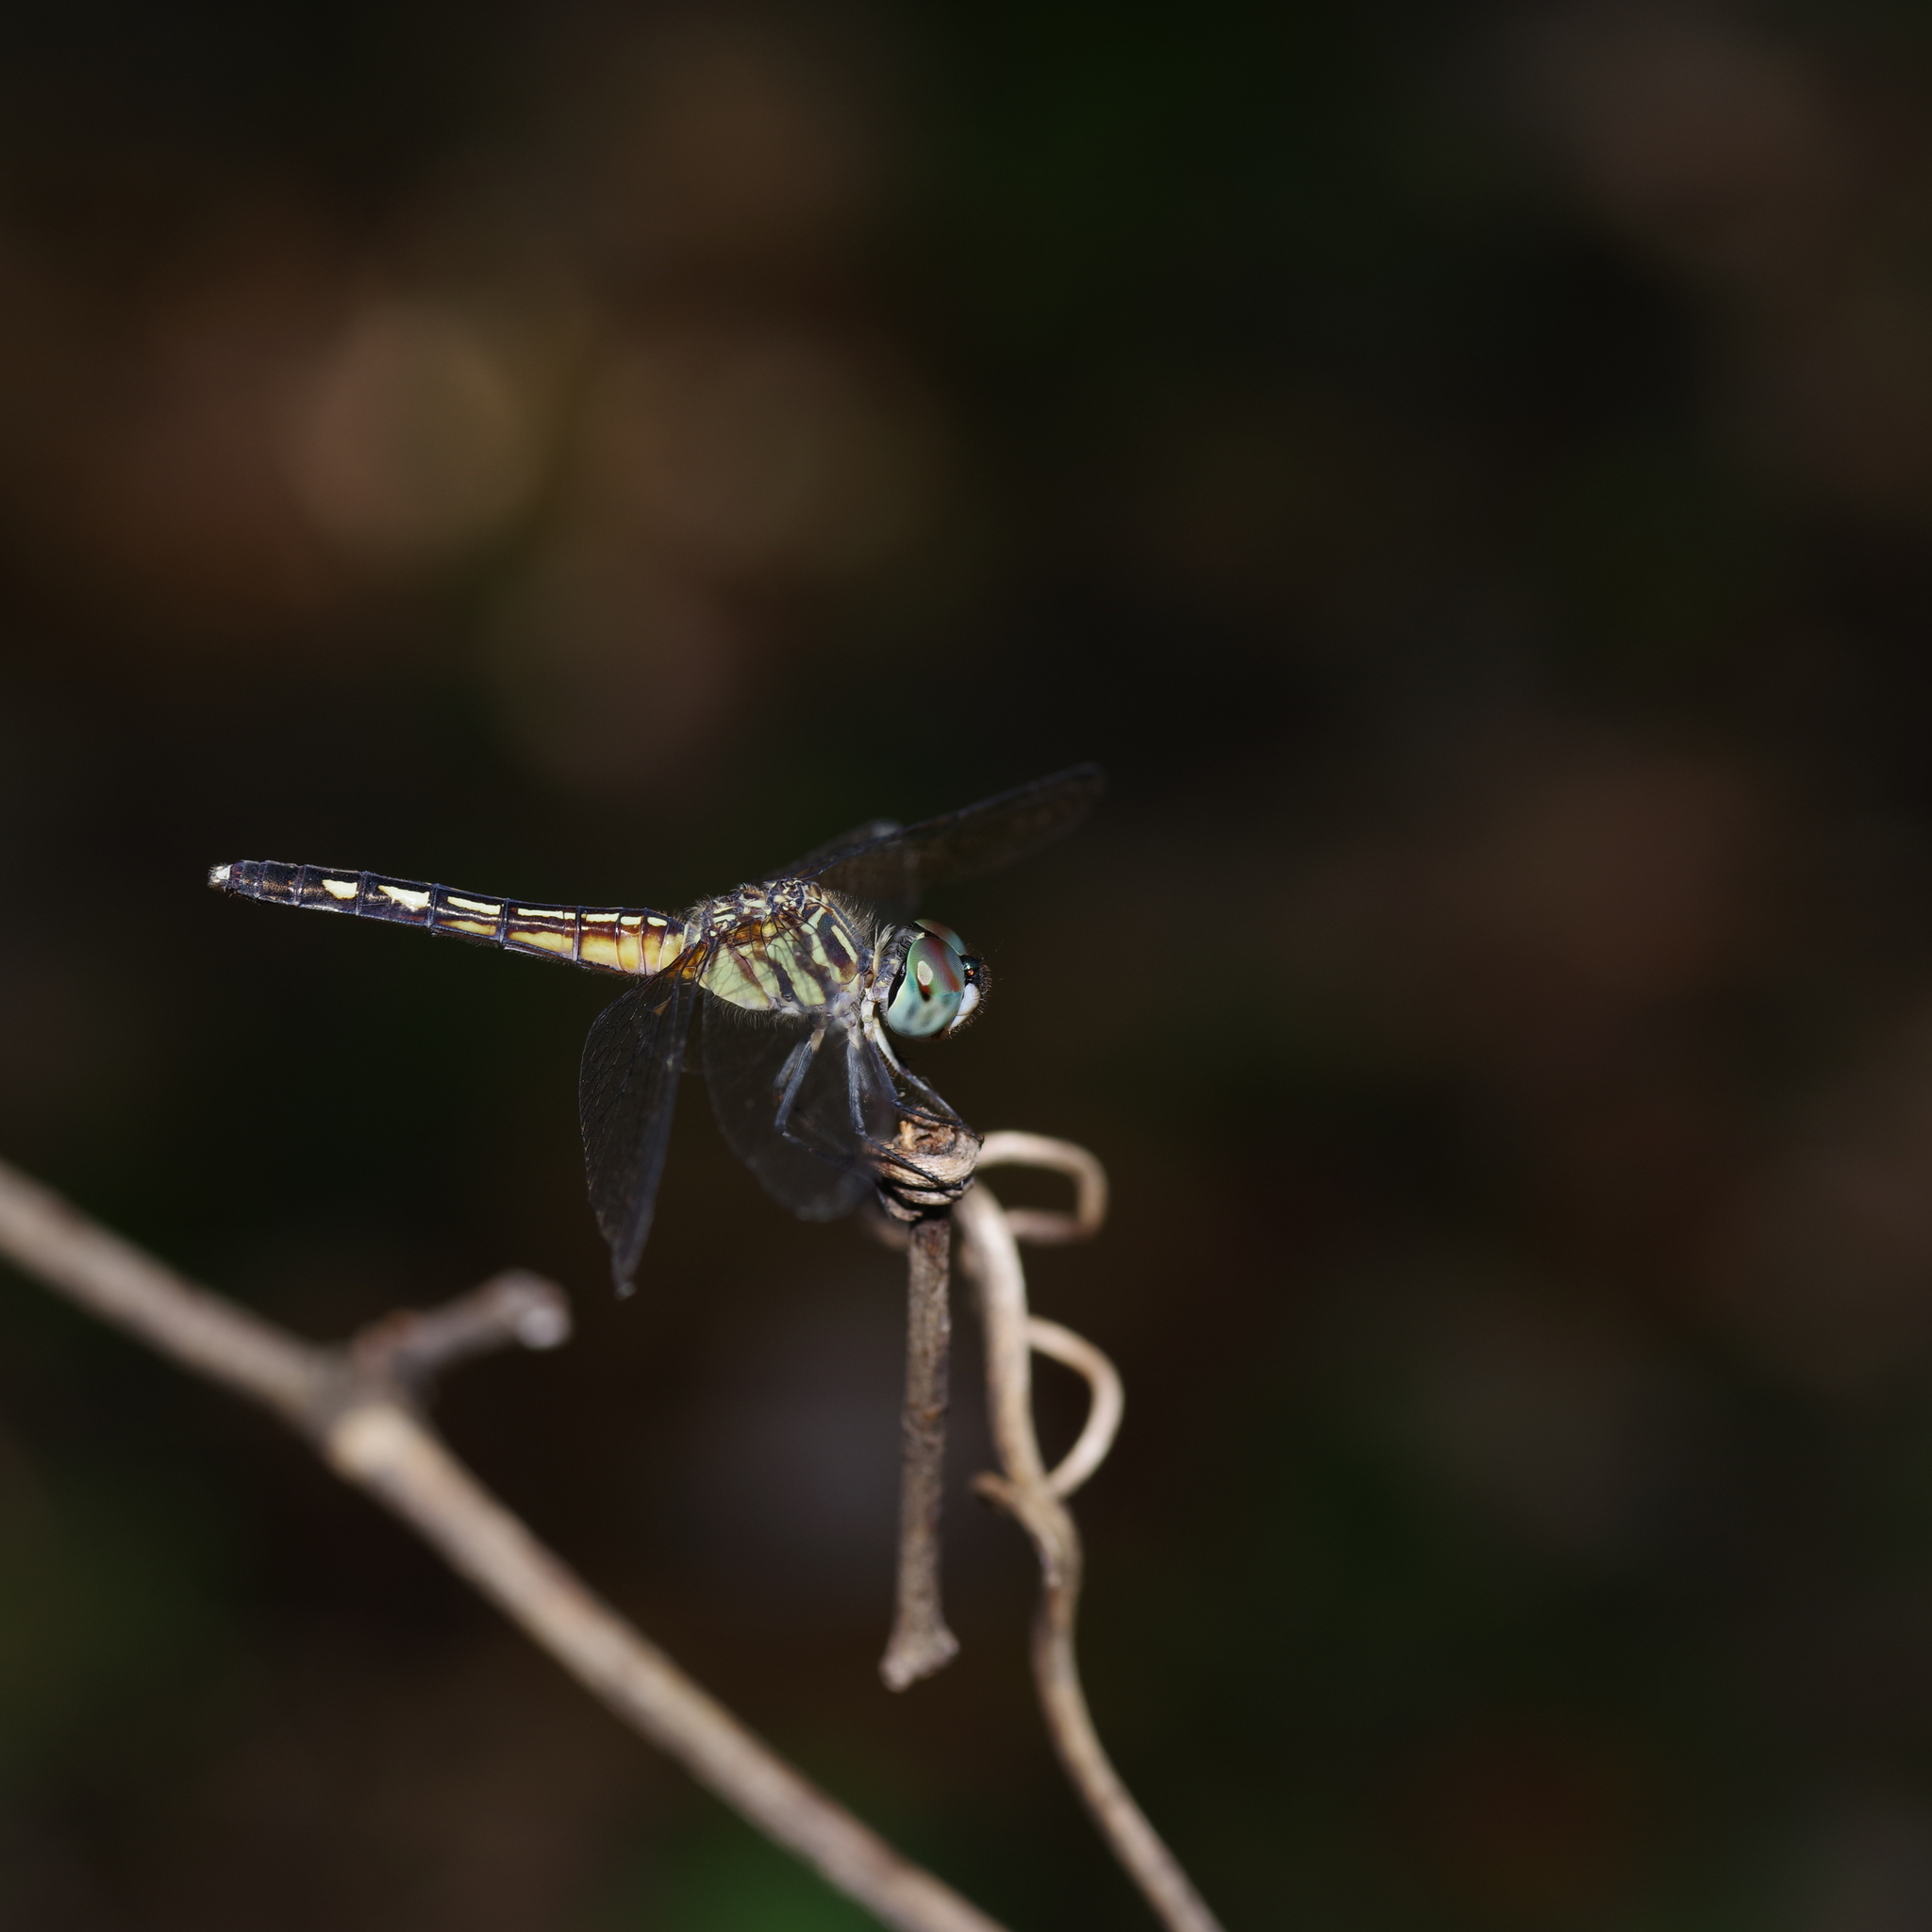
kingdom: Animalia
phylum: Arthropoda
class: Insecta
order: Odonata
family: Libellulidae
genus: Pachydiplax
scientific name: Pachydiplax longipennis
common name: Blue dasher
